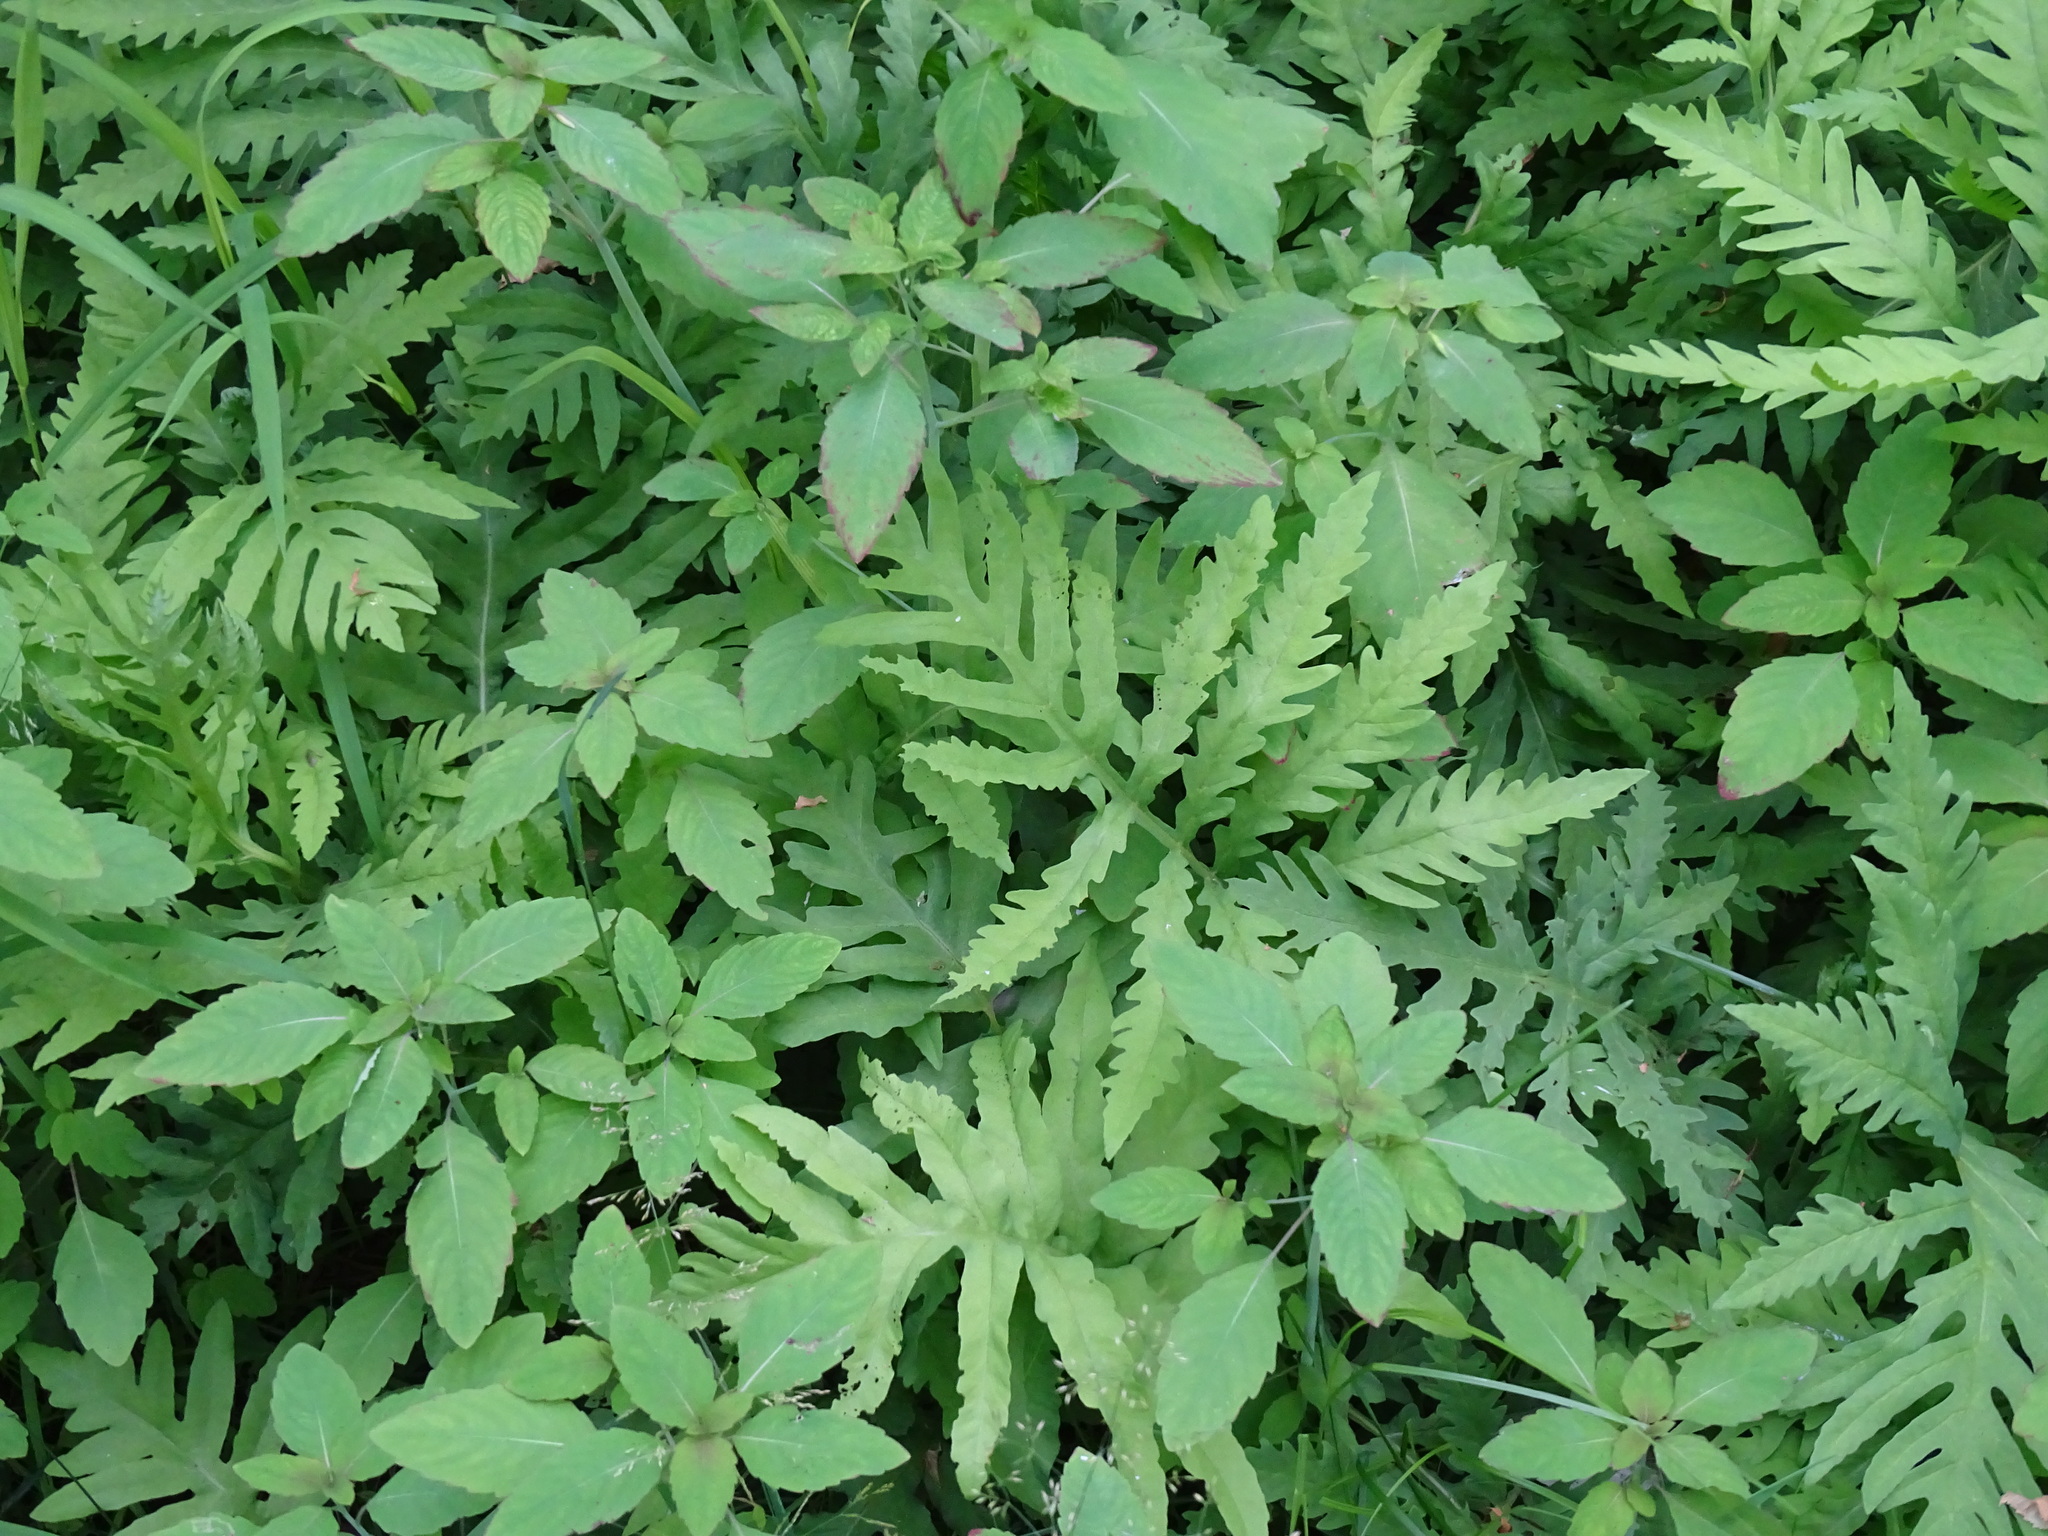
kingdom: Plantae
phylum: Tracheophyta
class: Polypodiopsida
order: Polypodiales
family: Onocleaceae
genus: Onoclea
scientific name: Onoclea sensibilis
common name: Sensitive fern
